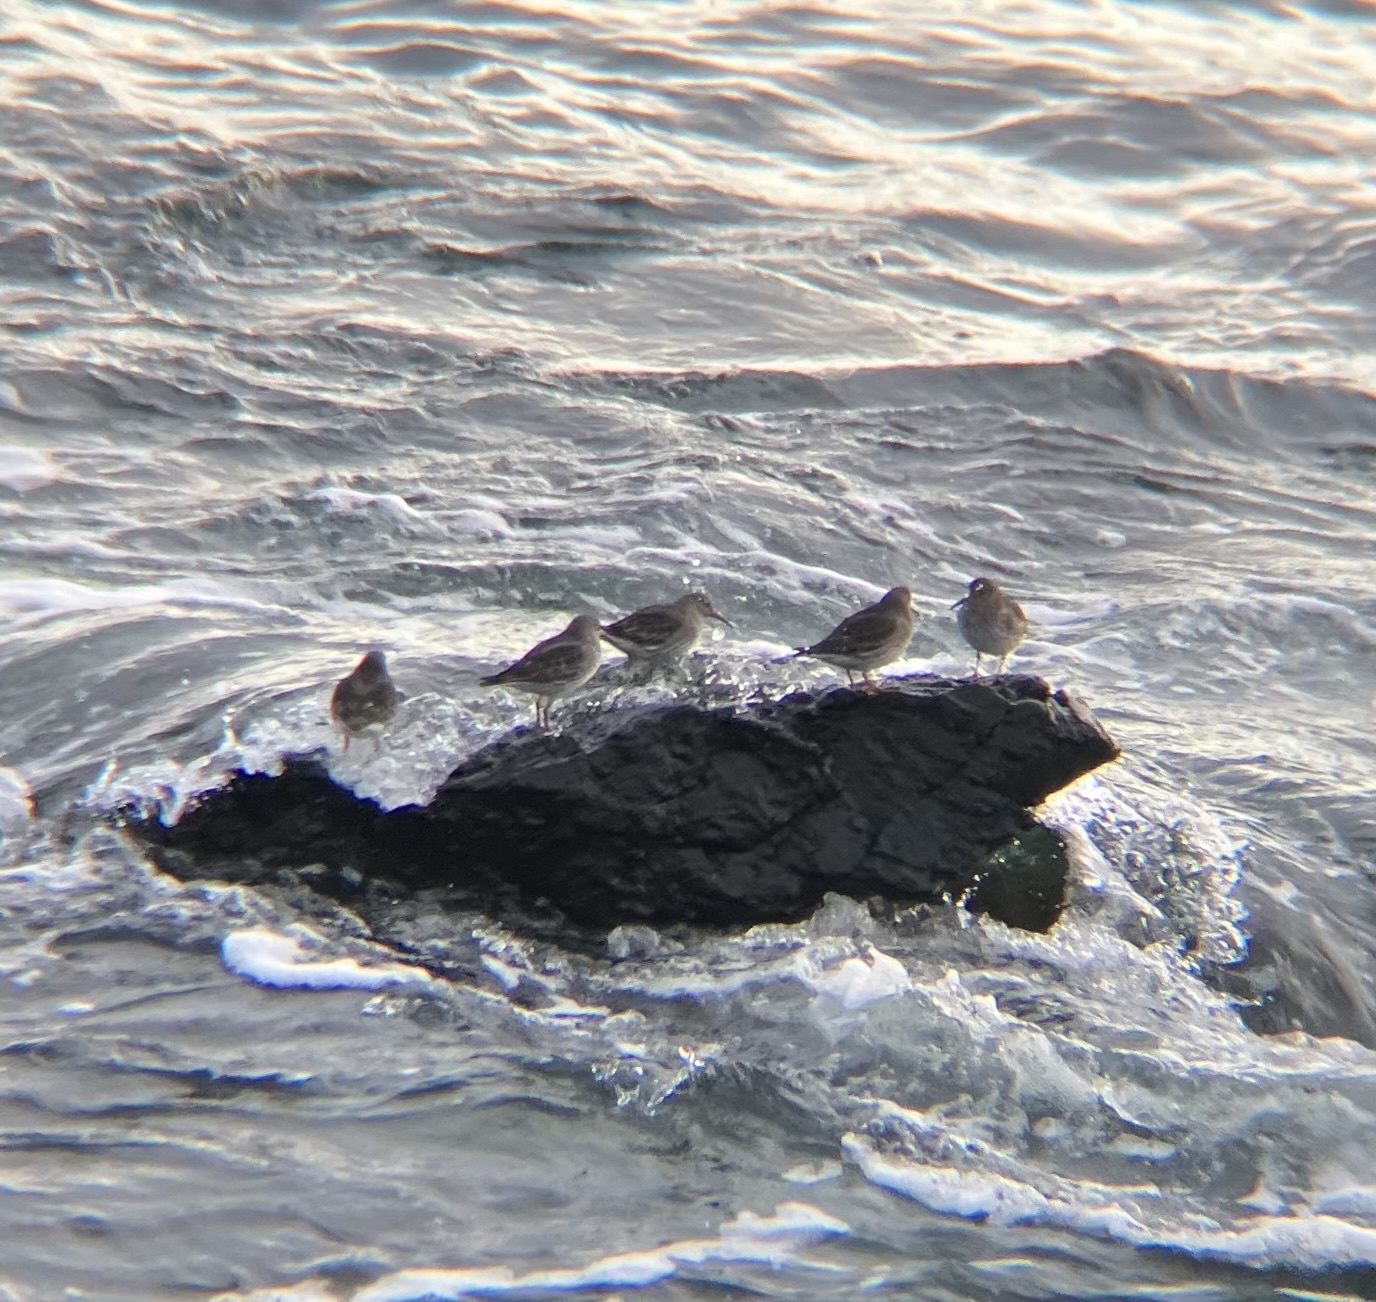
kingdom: Animalia
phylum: Chordata
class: Aves
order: Charadriiformes
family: Scolopacidae
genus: Calidris
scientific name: Calidris maritima
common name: Purple sandpiper
